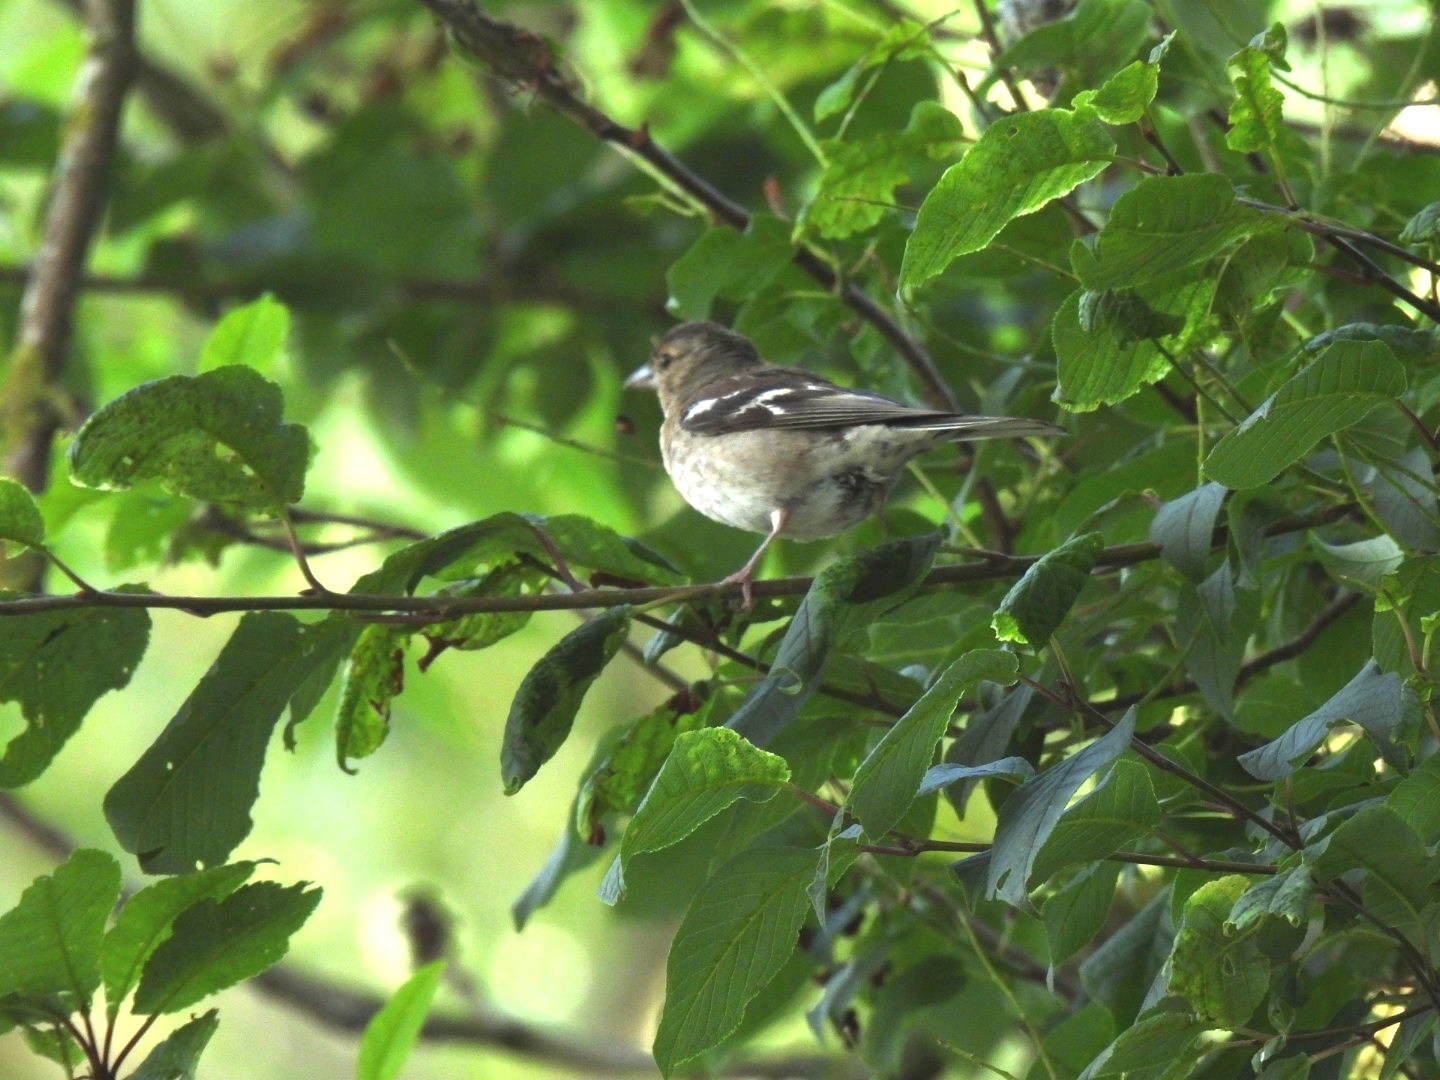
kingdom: Animalia
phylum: Chordata
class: Aves
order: Passeriformes
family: Fringillidae
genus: Fringilla
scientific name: Fringilla coelebs
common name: Common chaffinch
